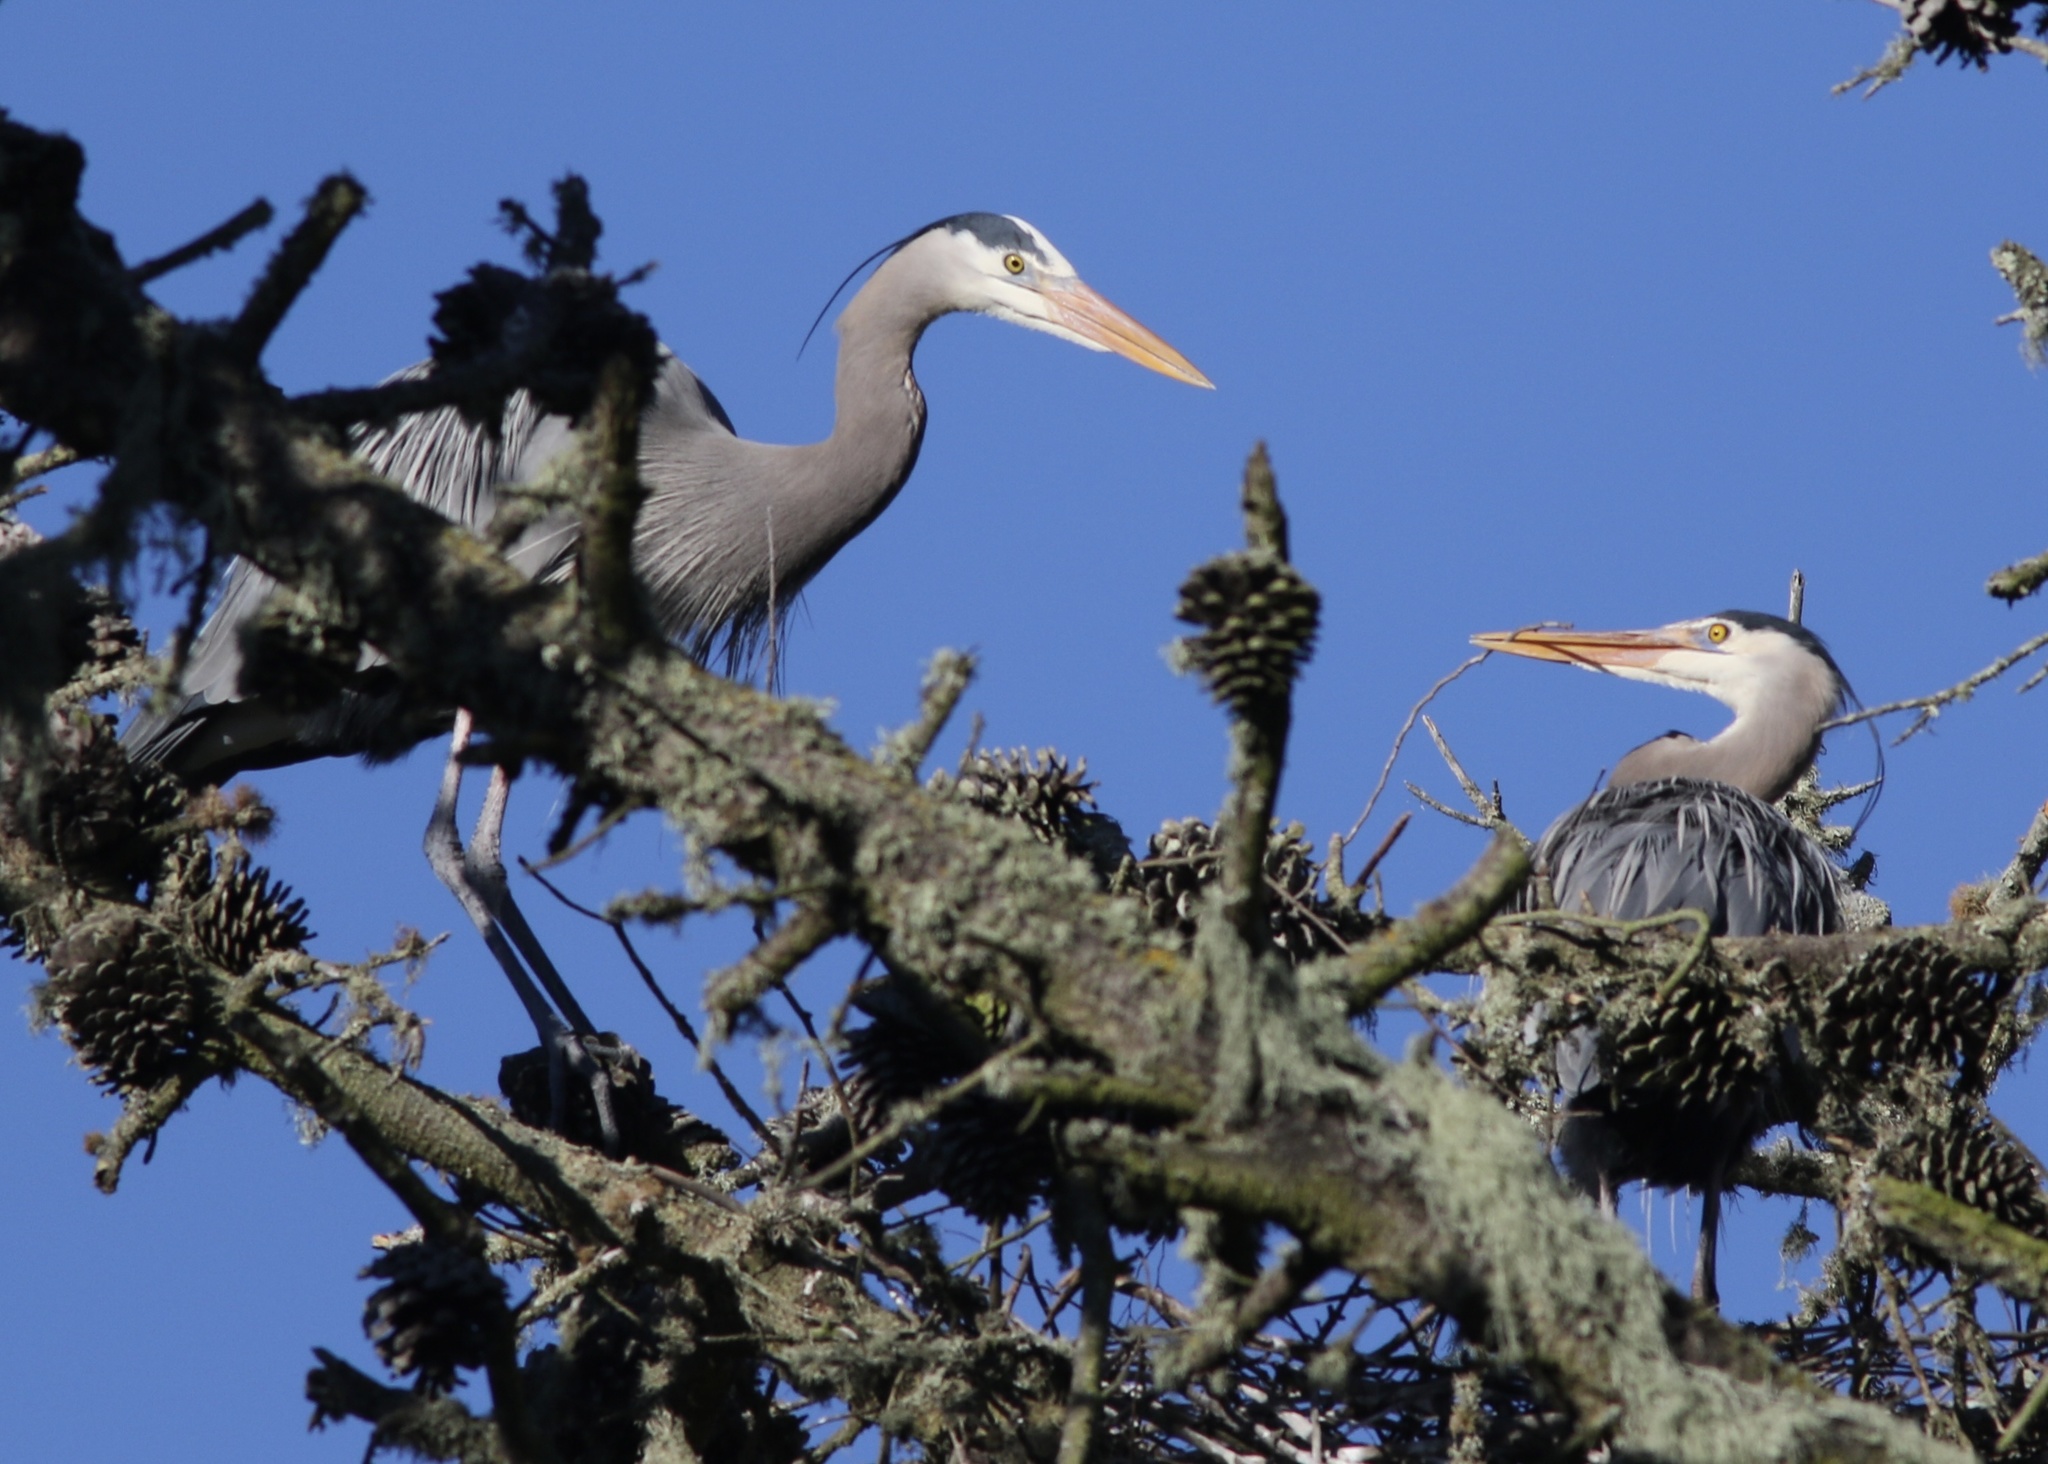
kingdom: Animalia
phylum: Chordata
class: Aves
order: Pelecaniformes
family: Ardeidae
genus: Ardea
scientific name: Ardea herodias
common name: Great blue heron
